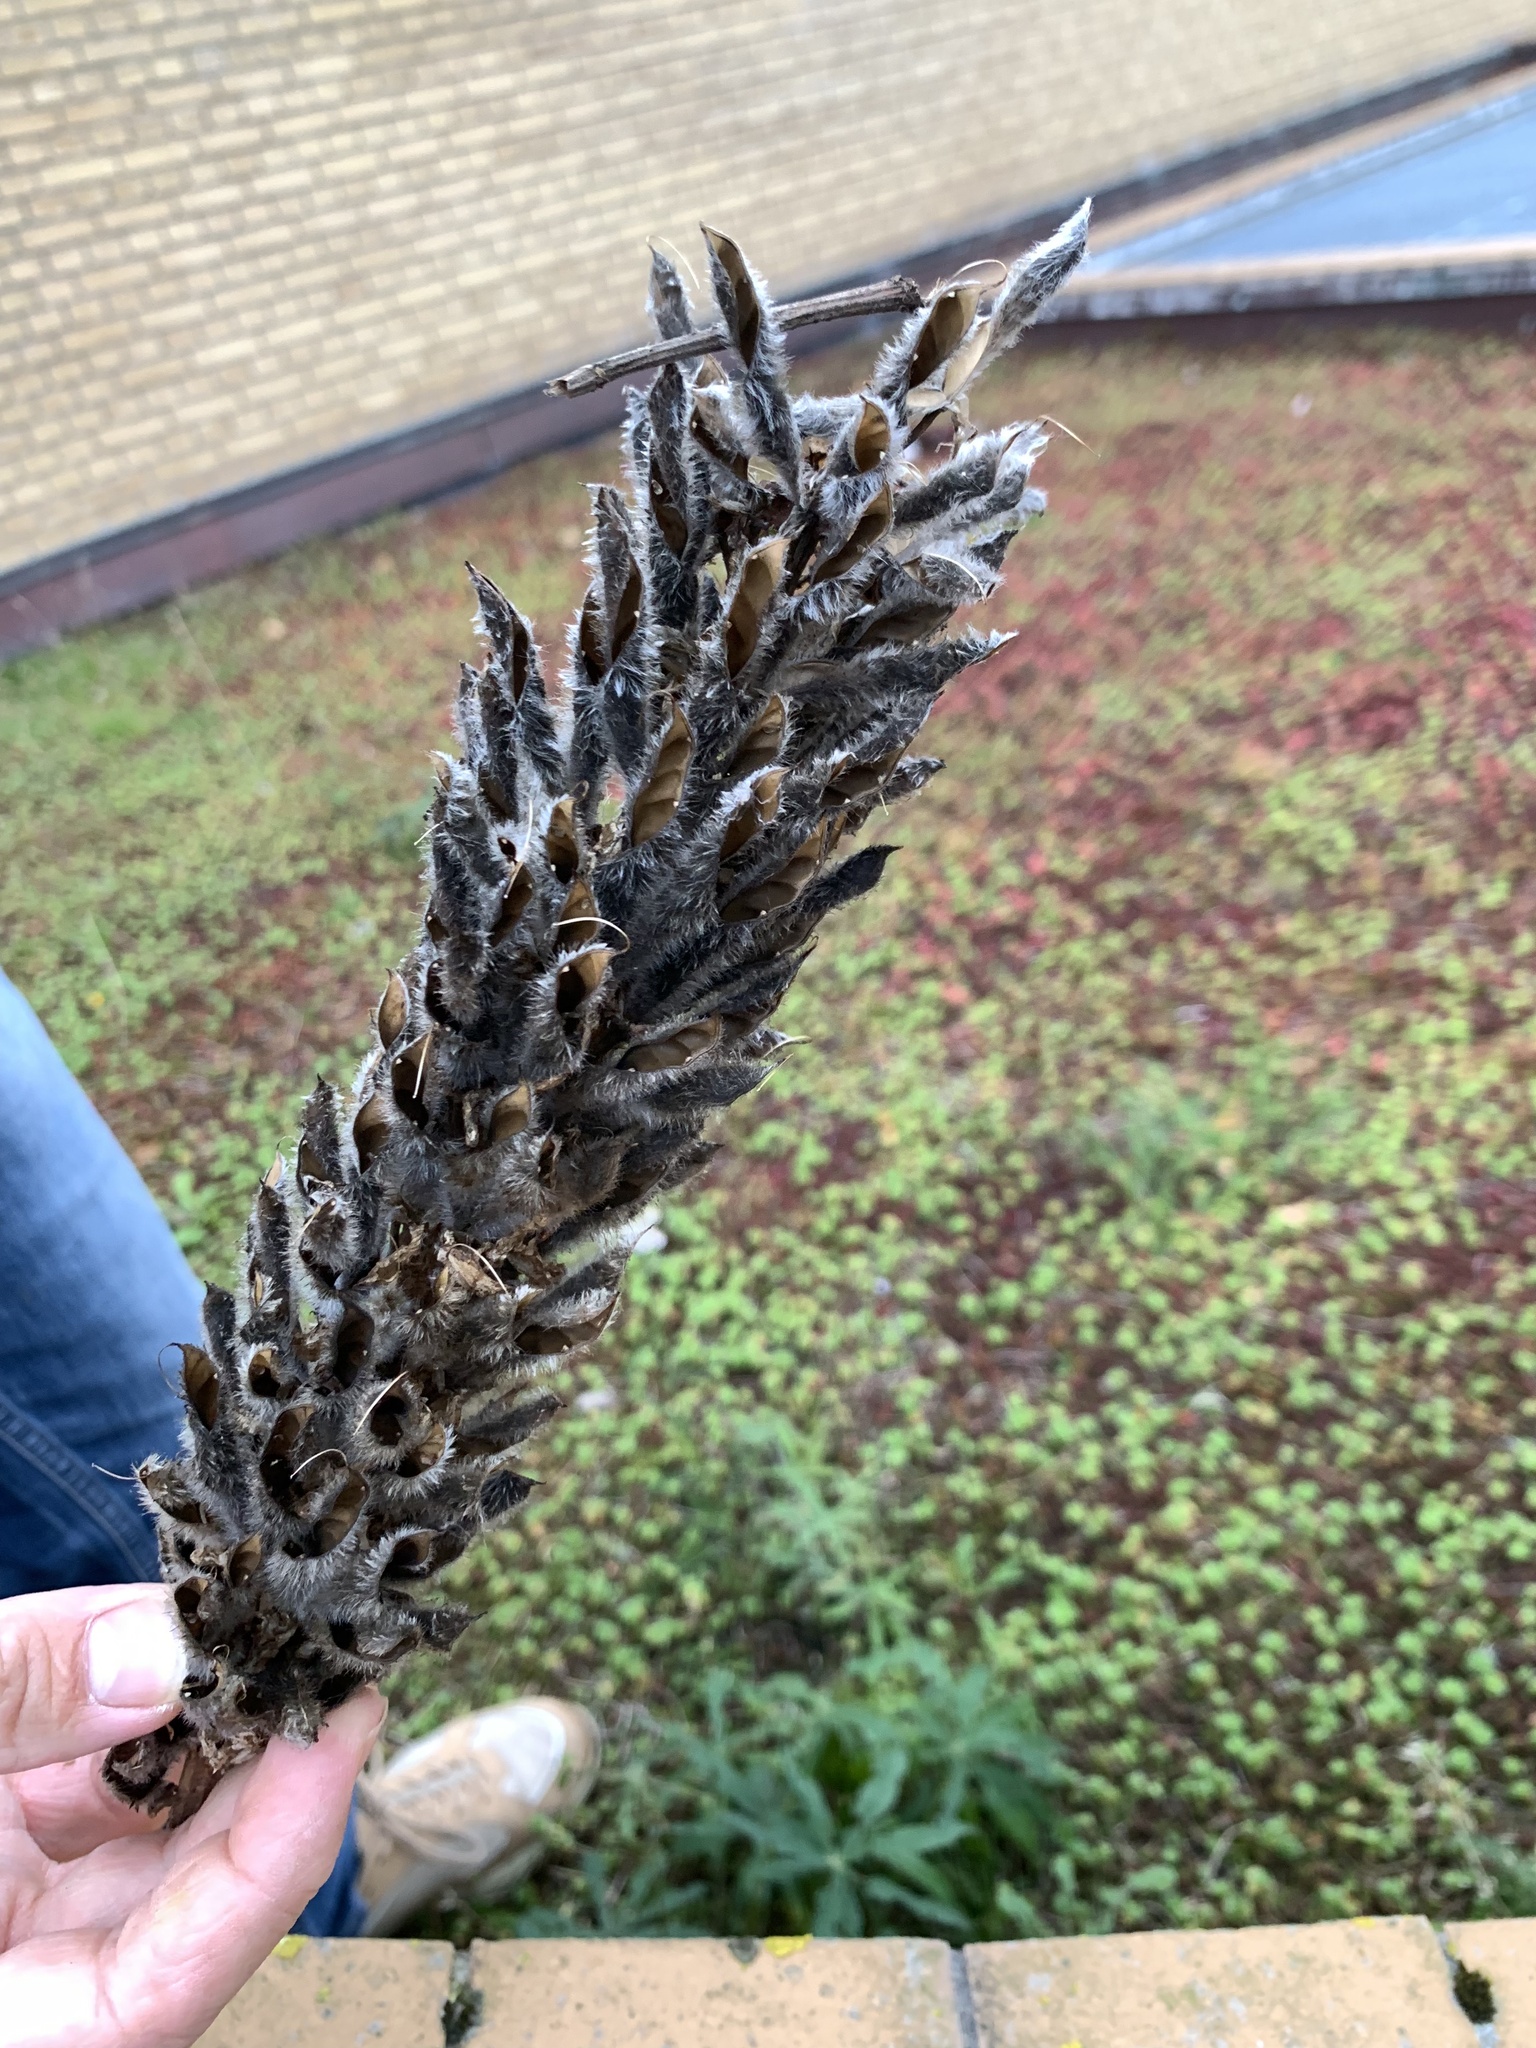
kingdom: Plantae
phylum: Tracheophyta
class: Magnoliopsida
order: Fabales
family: Fabaceae
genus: Lupinus
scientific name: Lupinus polyphyllus
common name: Garden lupin
